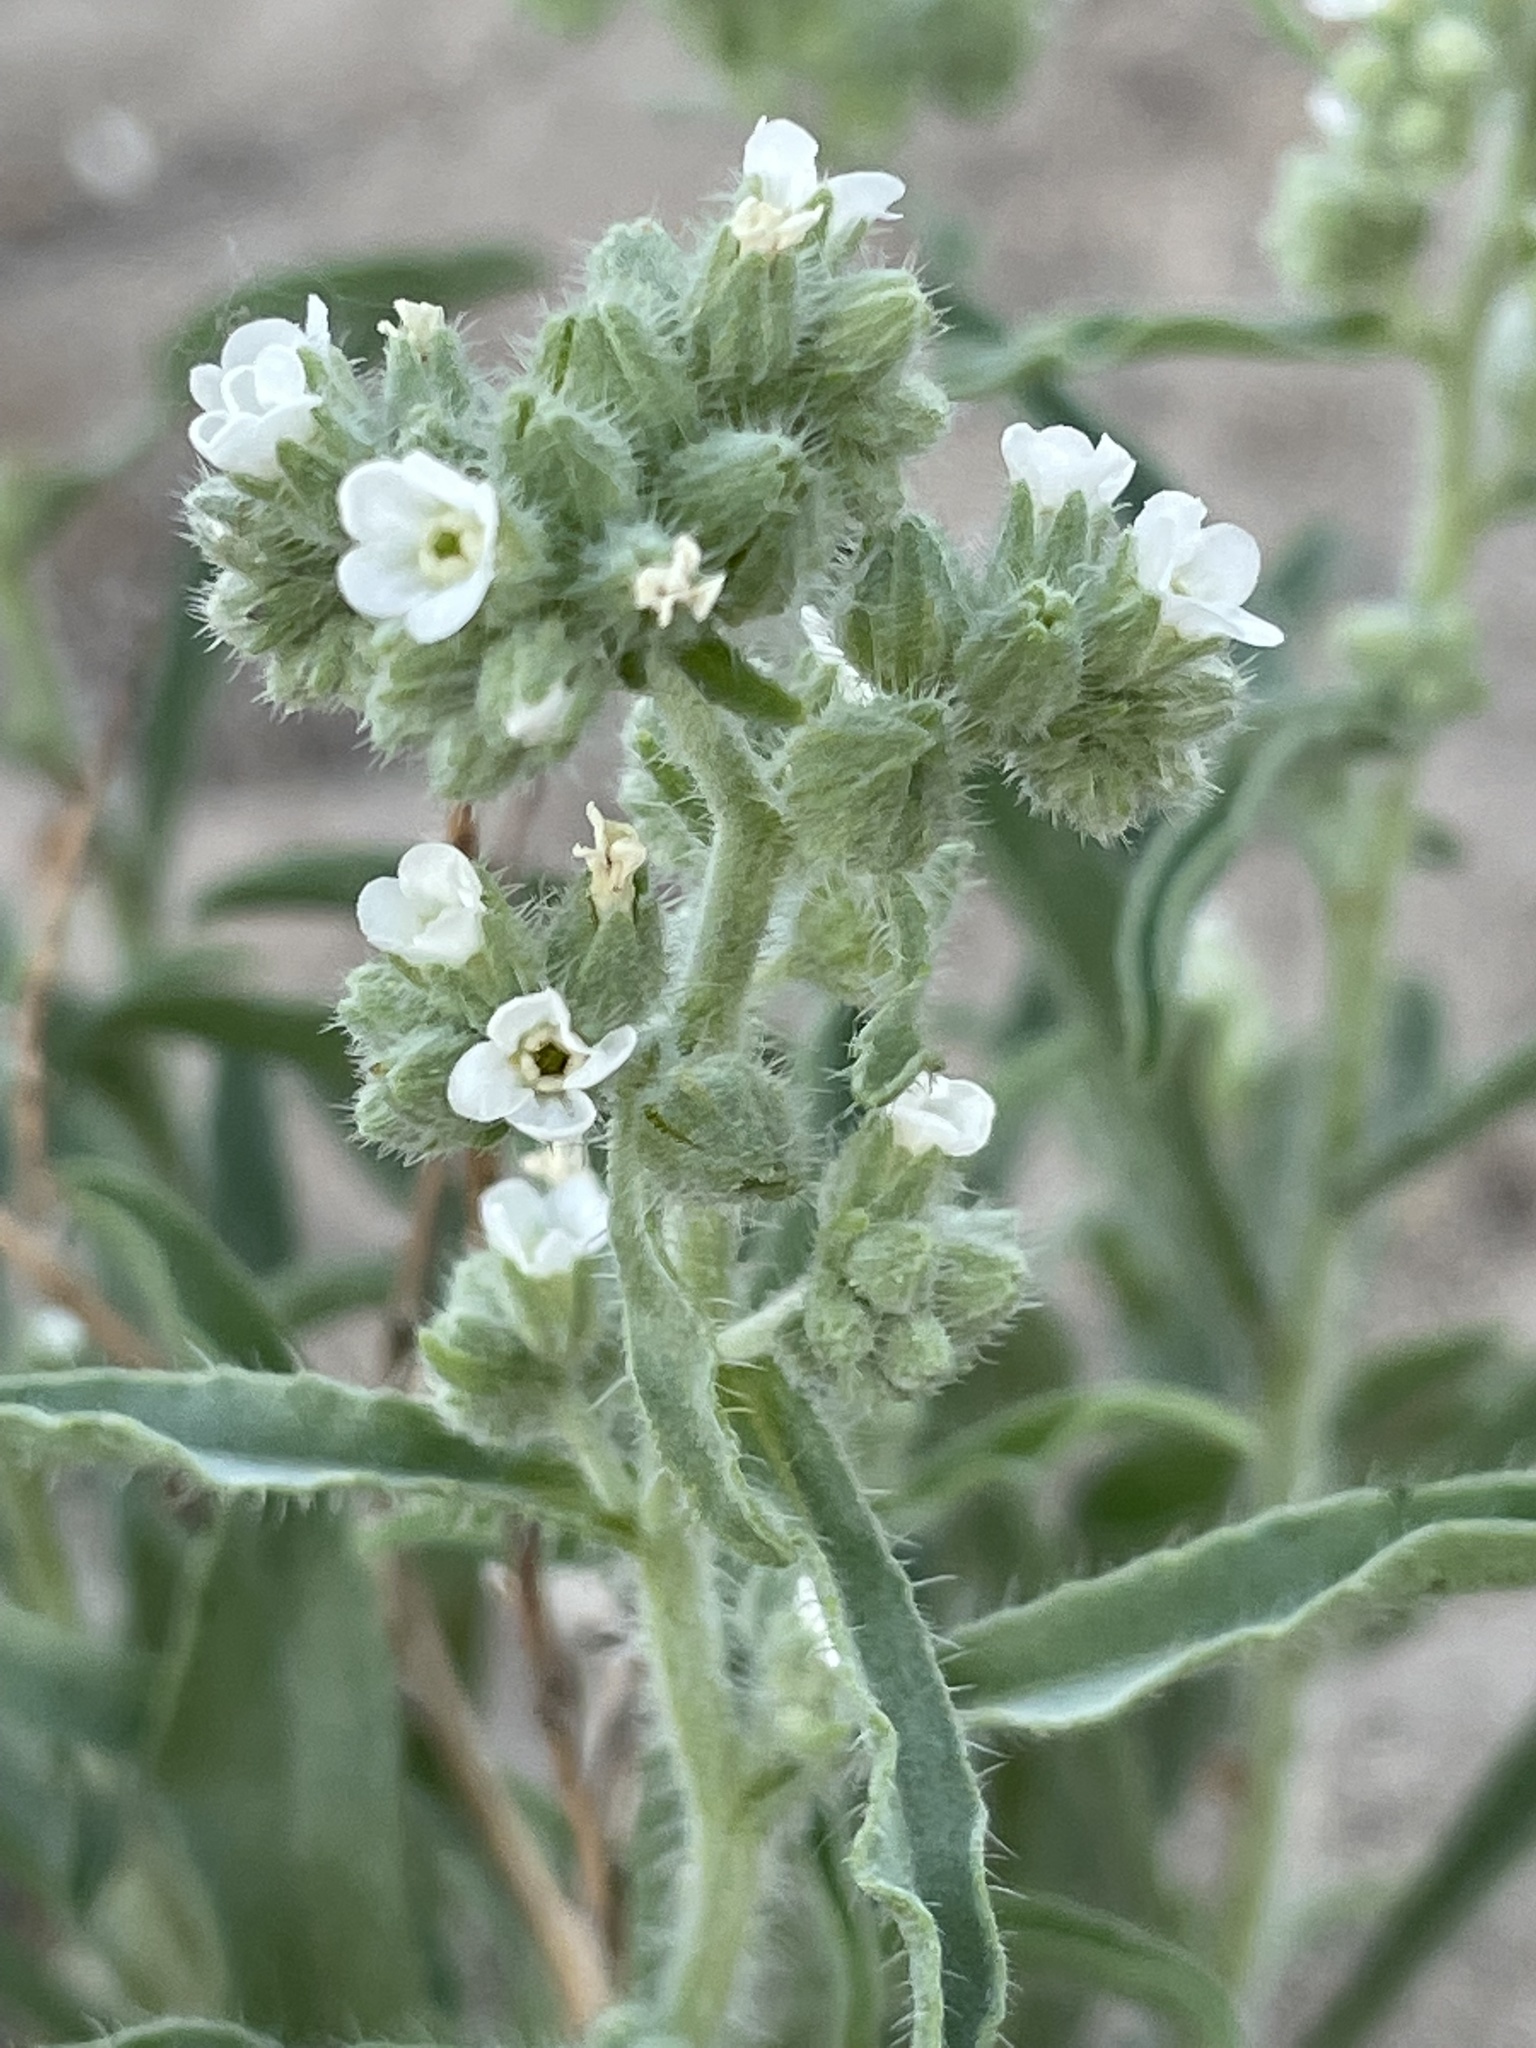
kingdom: Plantae
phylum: Tracheophyta
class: Magnoliopsida
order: Boraginales
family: Boraginaceae
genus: Oreocarya
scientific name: Oreocarya suffruticosa
